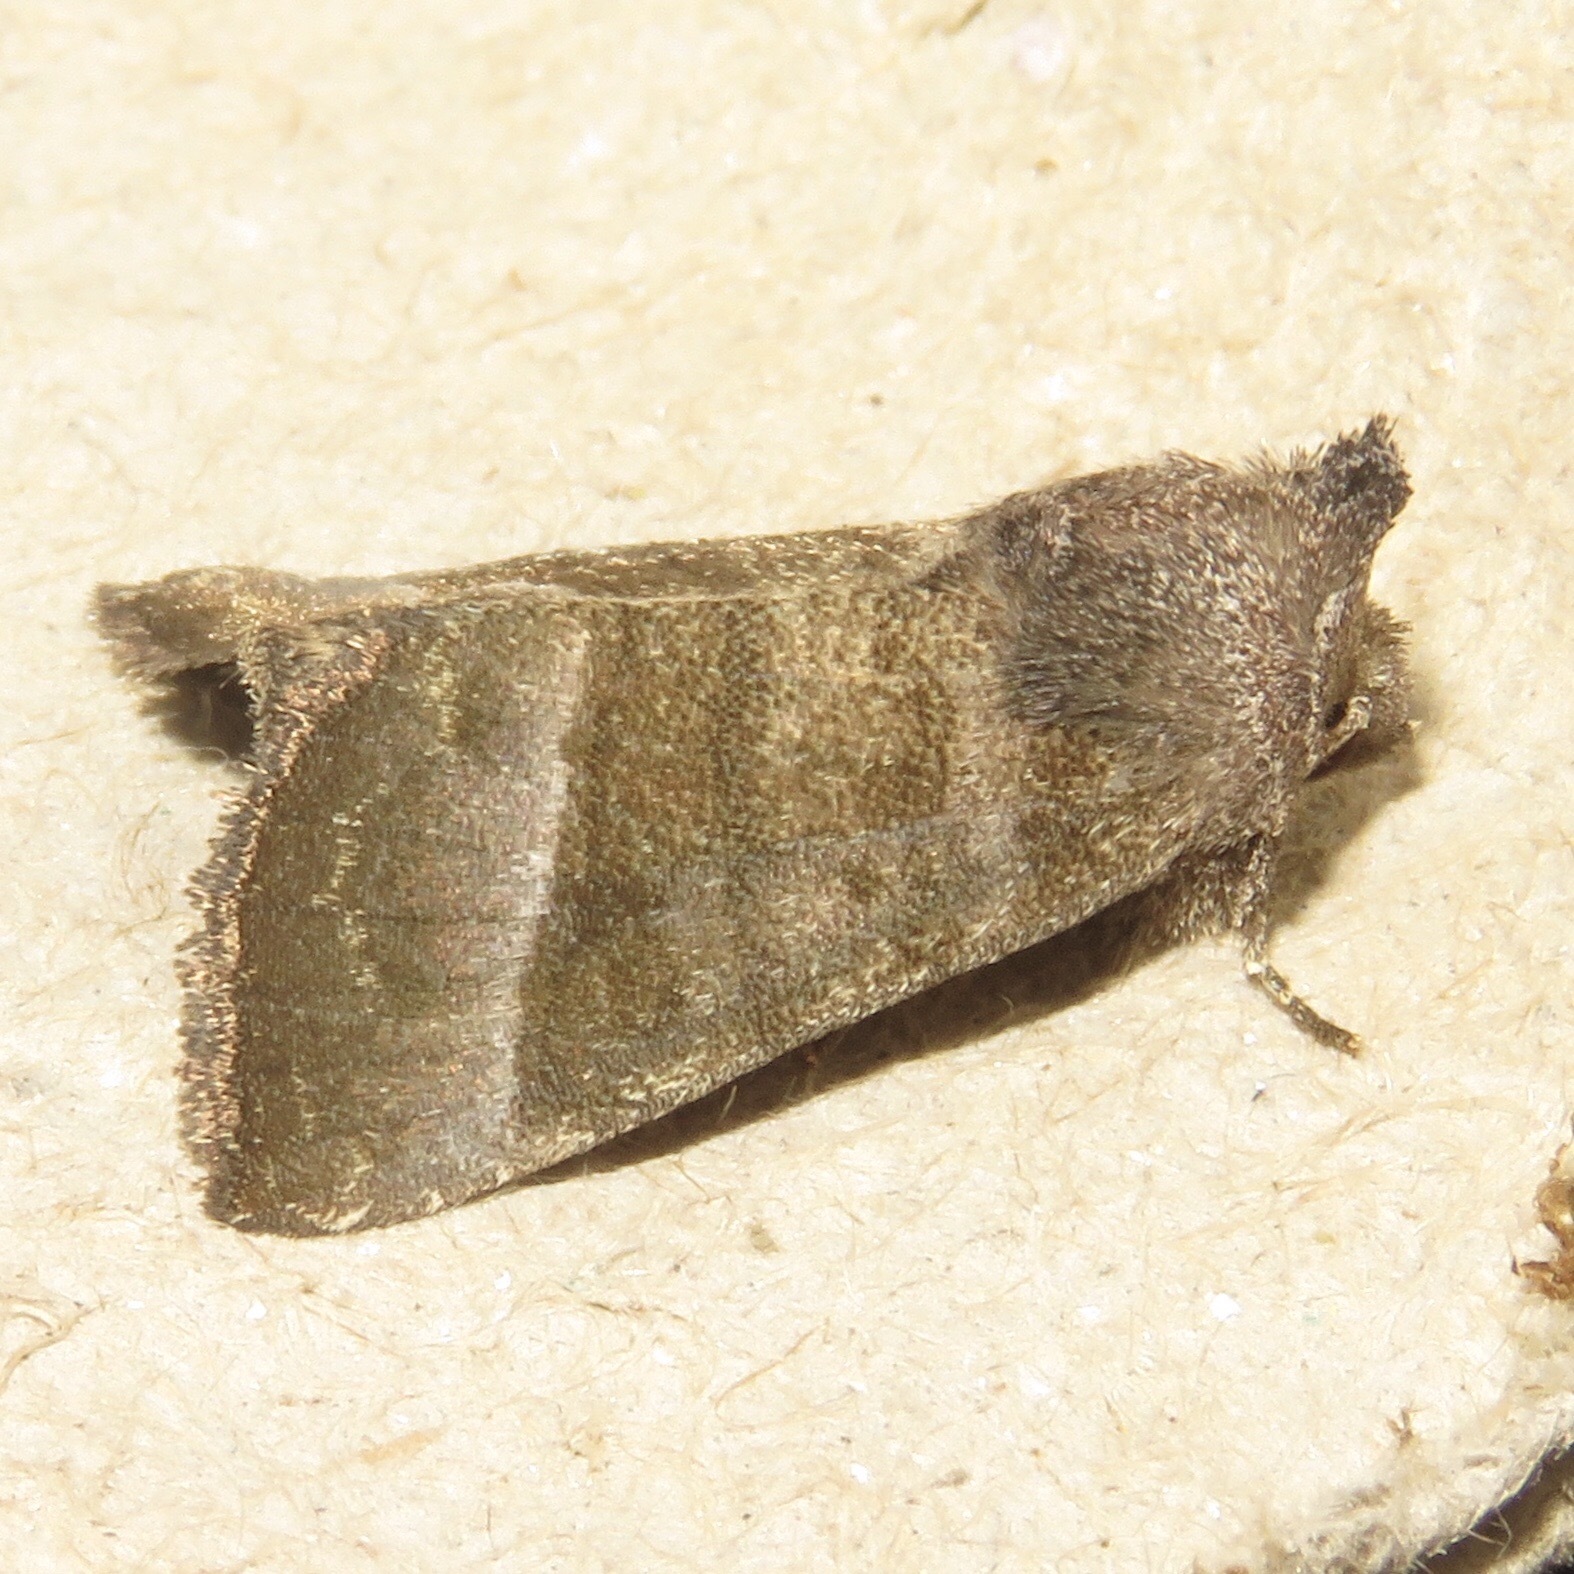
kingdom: Animalia
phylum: Arthropoda
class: Insecta
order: Lepidoptera
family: Noctuidae
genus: Papaipema
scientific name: Papaipema eupatorii
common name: Eupatorium borer moth
